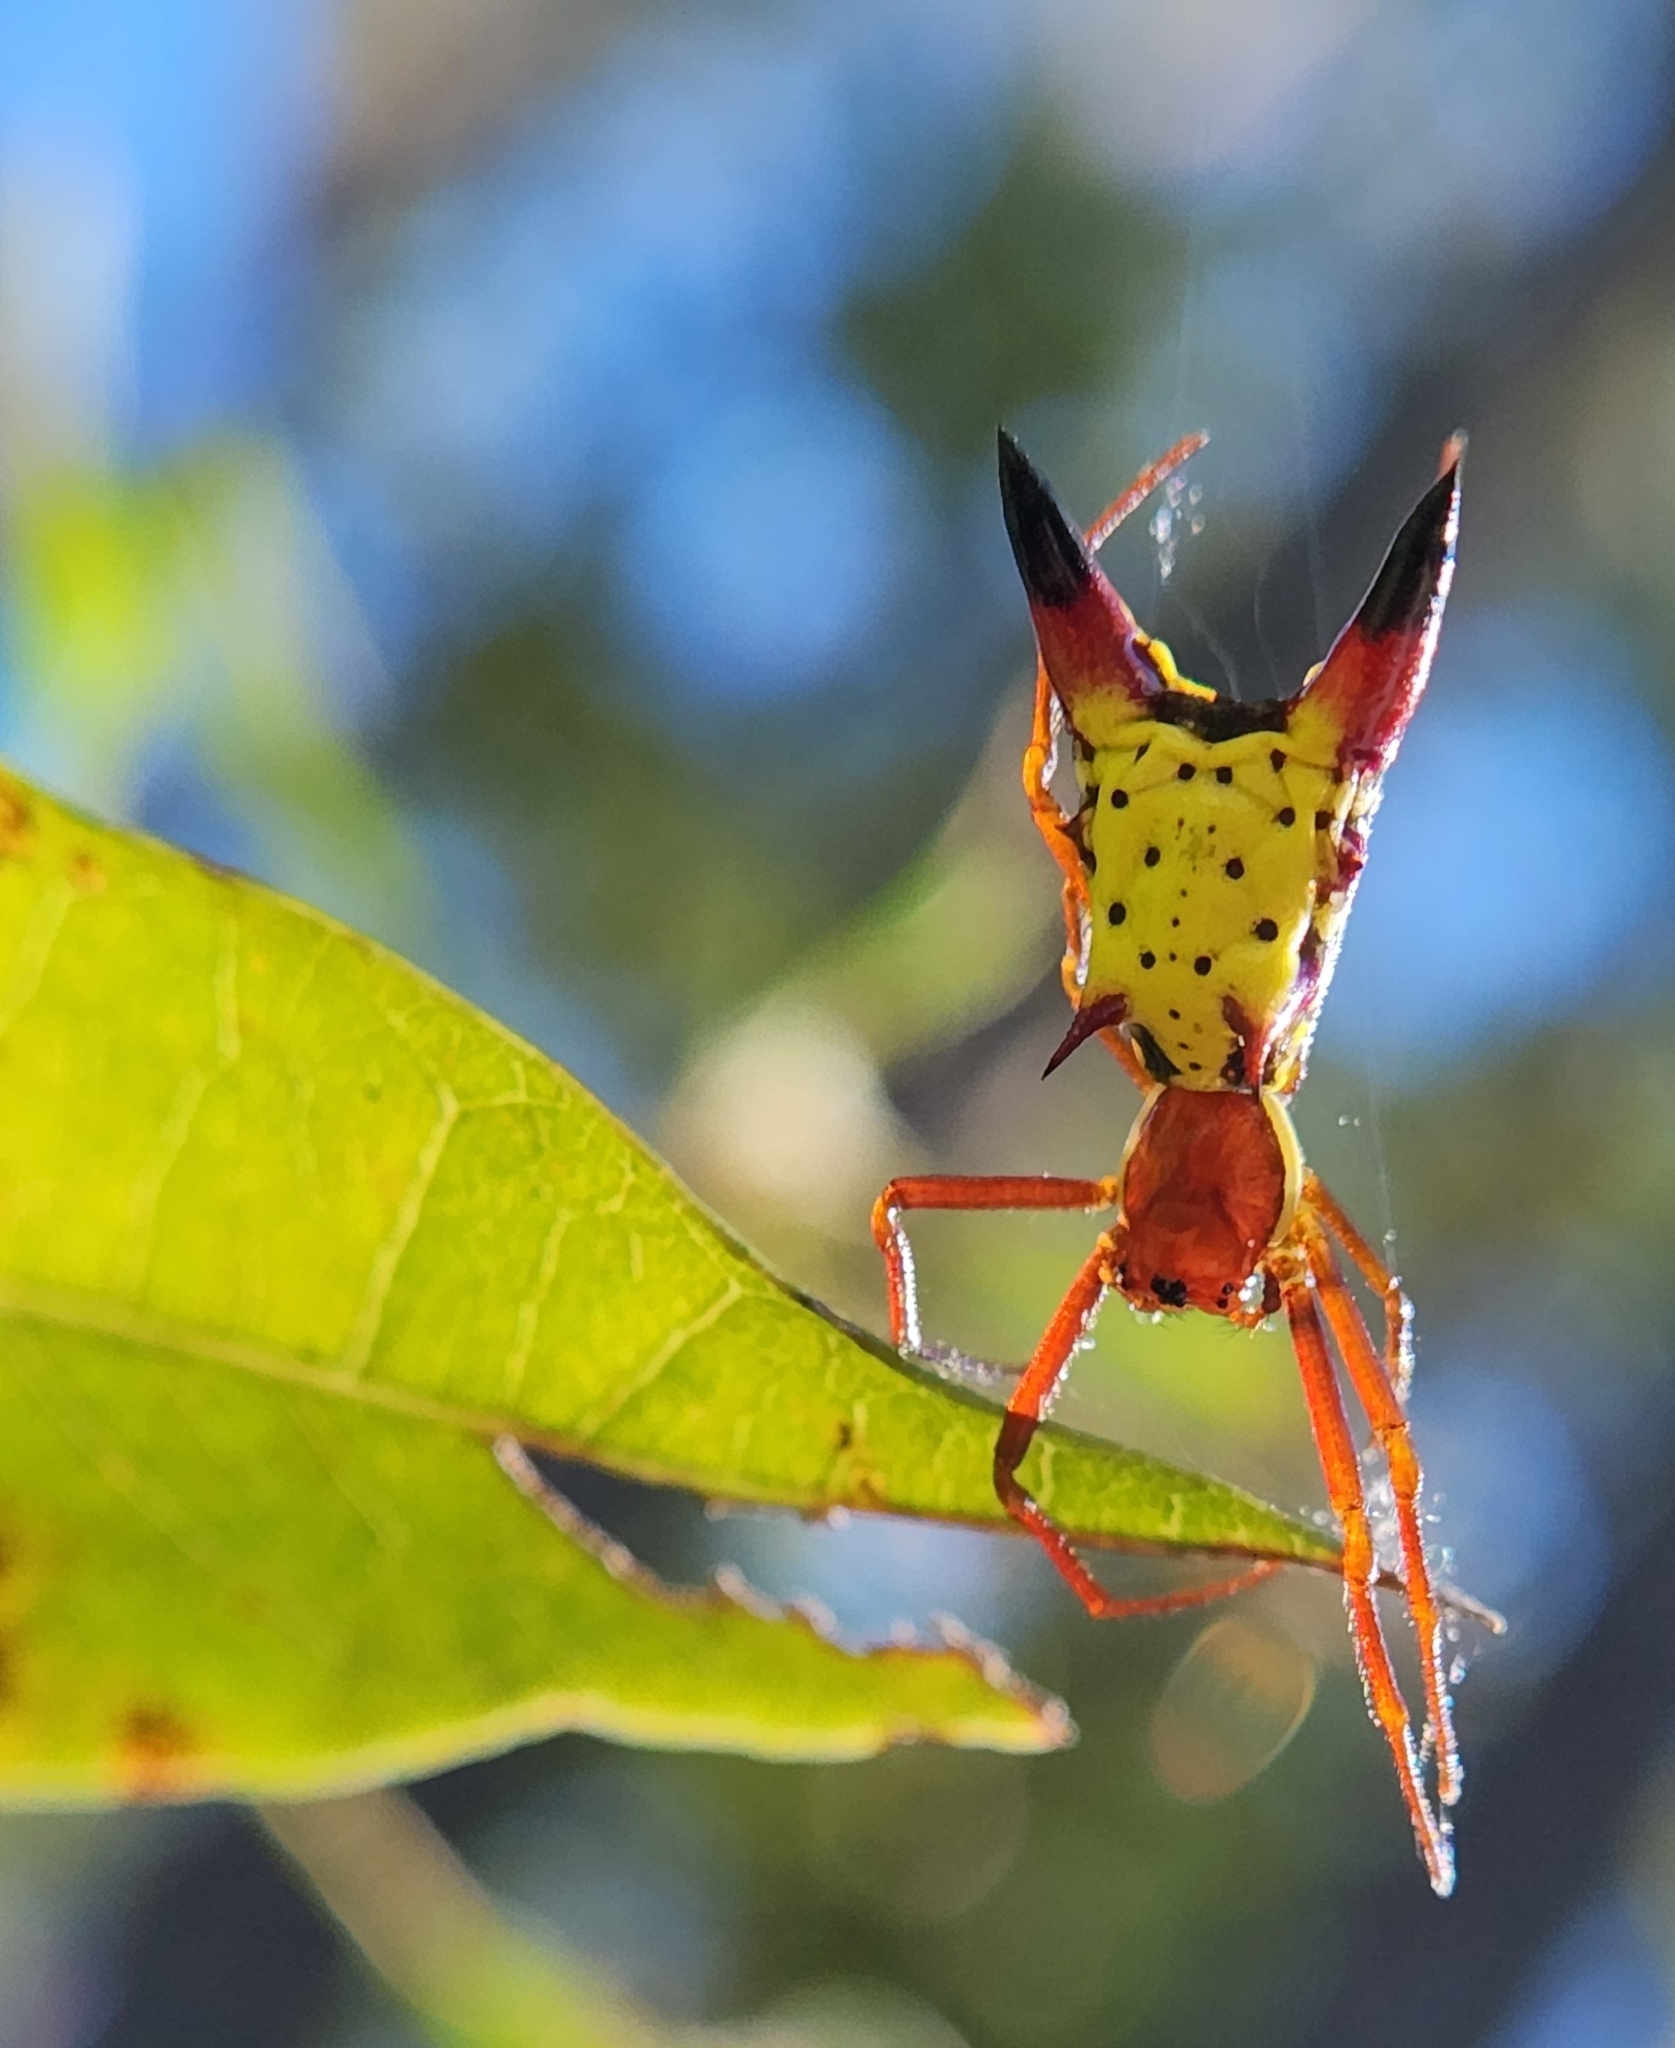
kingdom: Animalia
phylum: Arthropoda
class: Arachnida
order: Araneae
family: Araneidae
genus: Micrathena
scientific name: Micrathena sagittata
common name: Orb weavers
